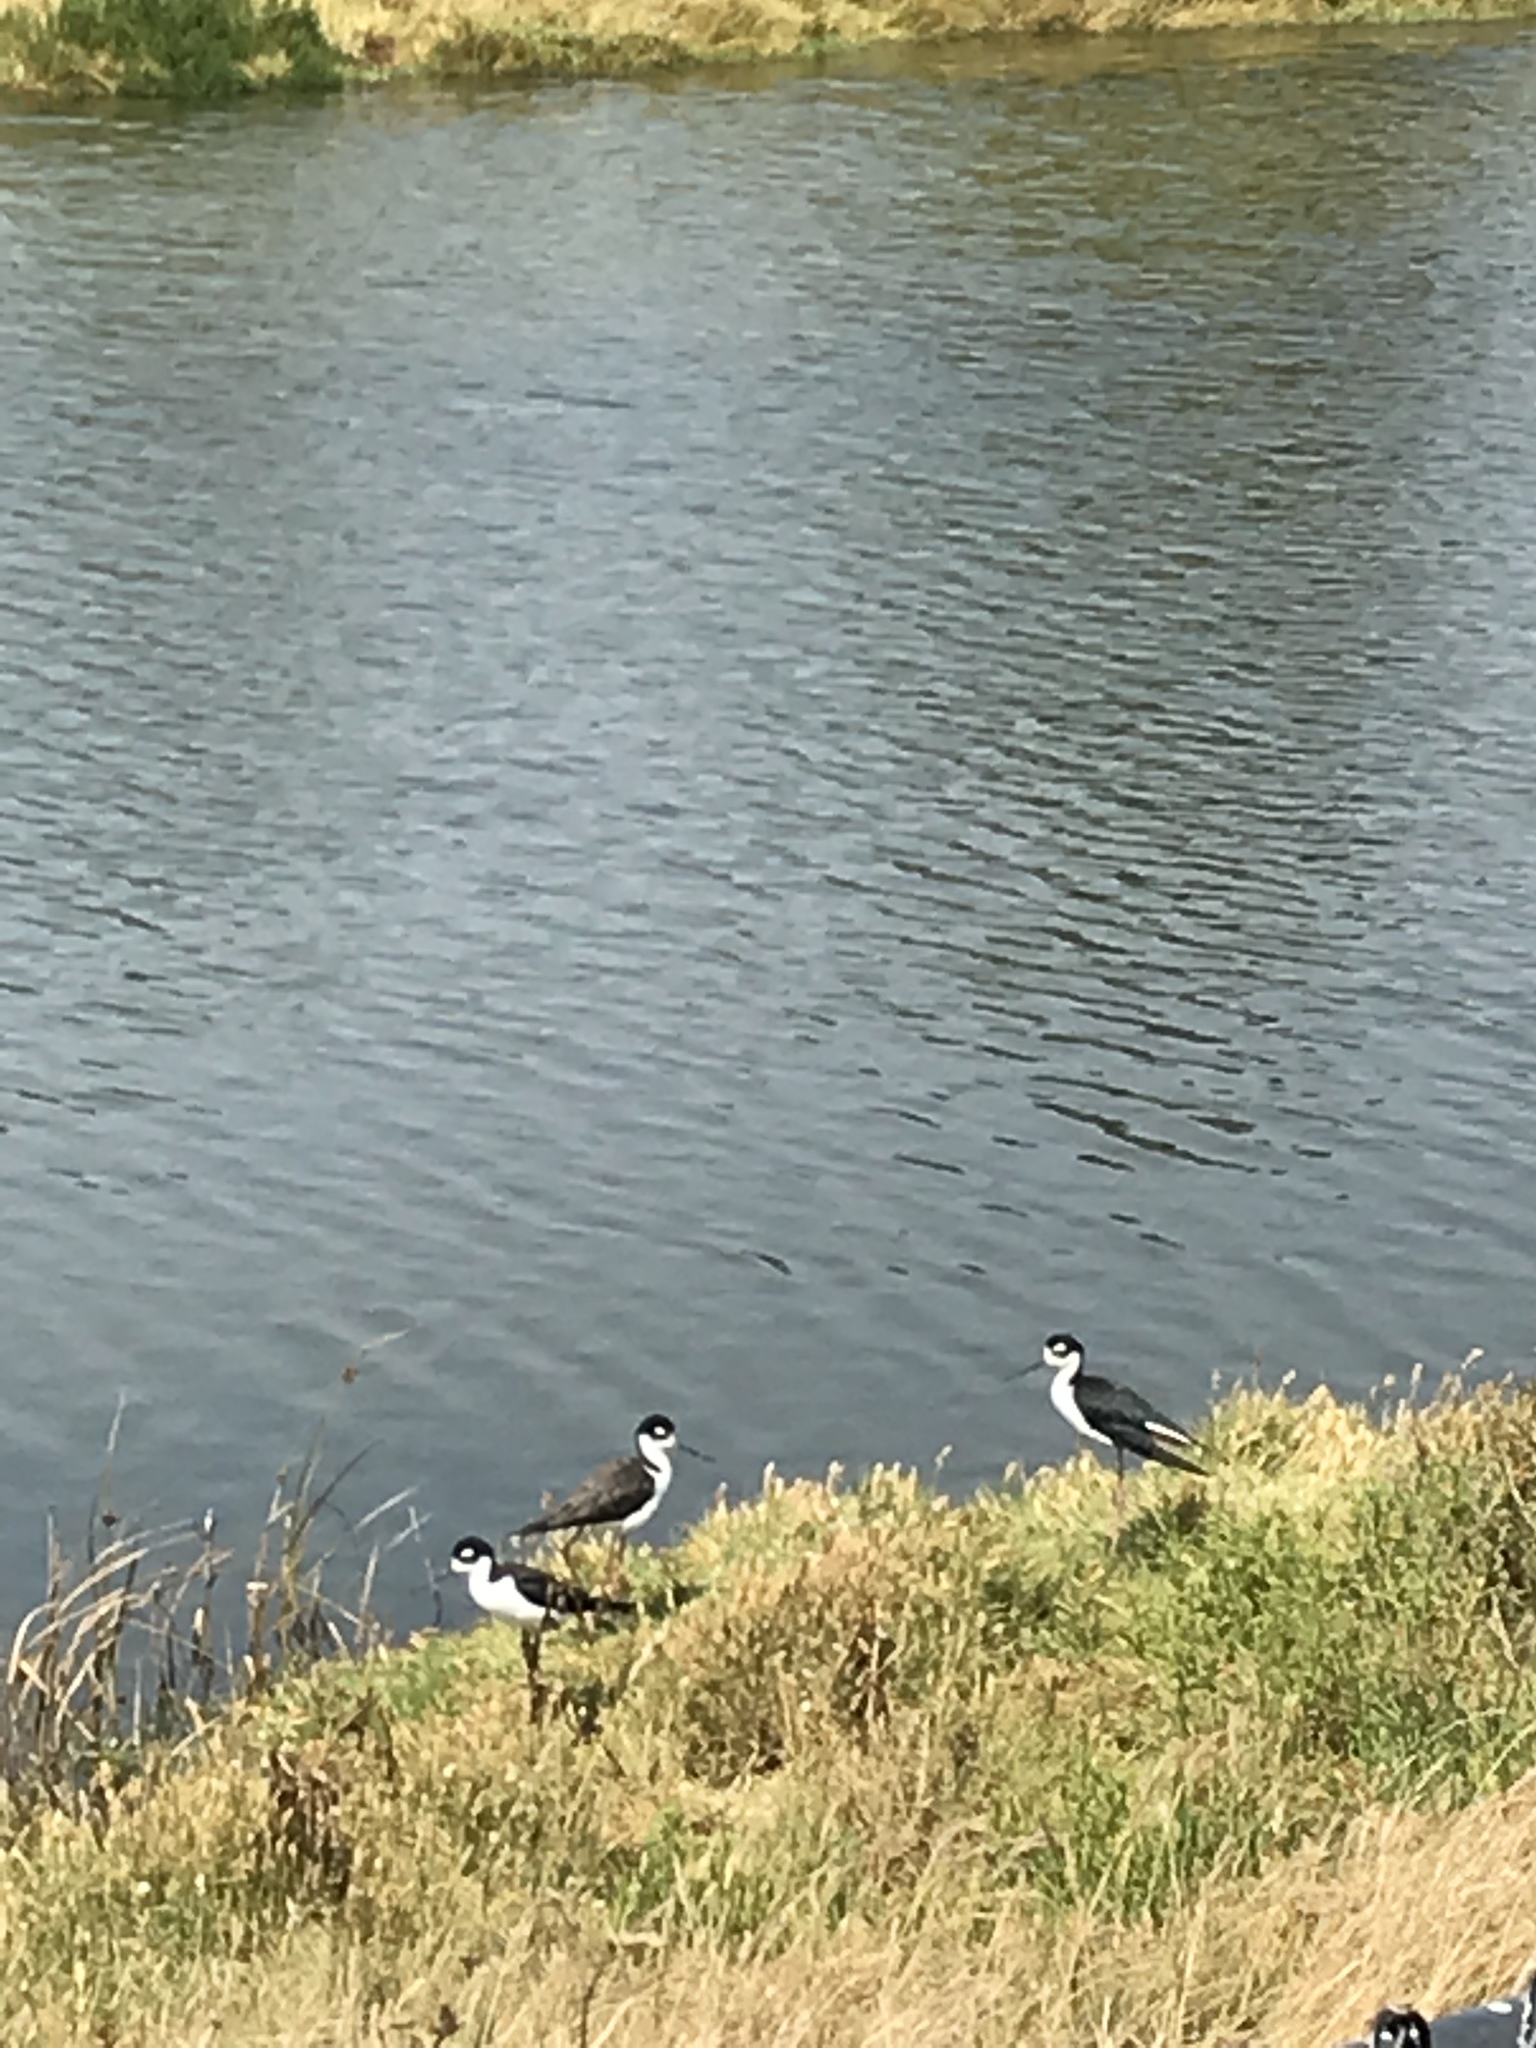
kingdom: Animalia
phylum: Chordata
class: Aves
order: Charadriiformes
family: Recurvirostridae
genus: Himantopus
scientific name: Himantopus mexicanus
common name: Black-necked stilt
